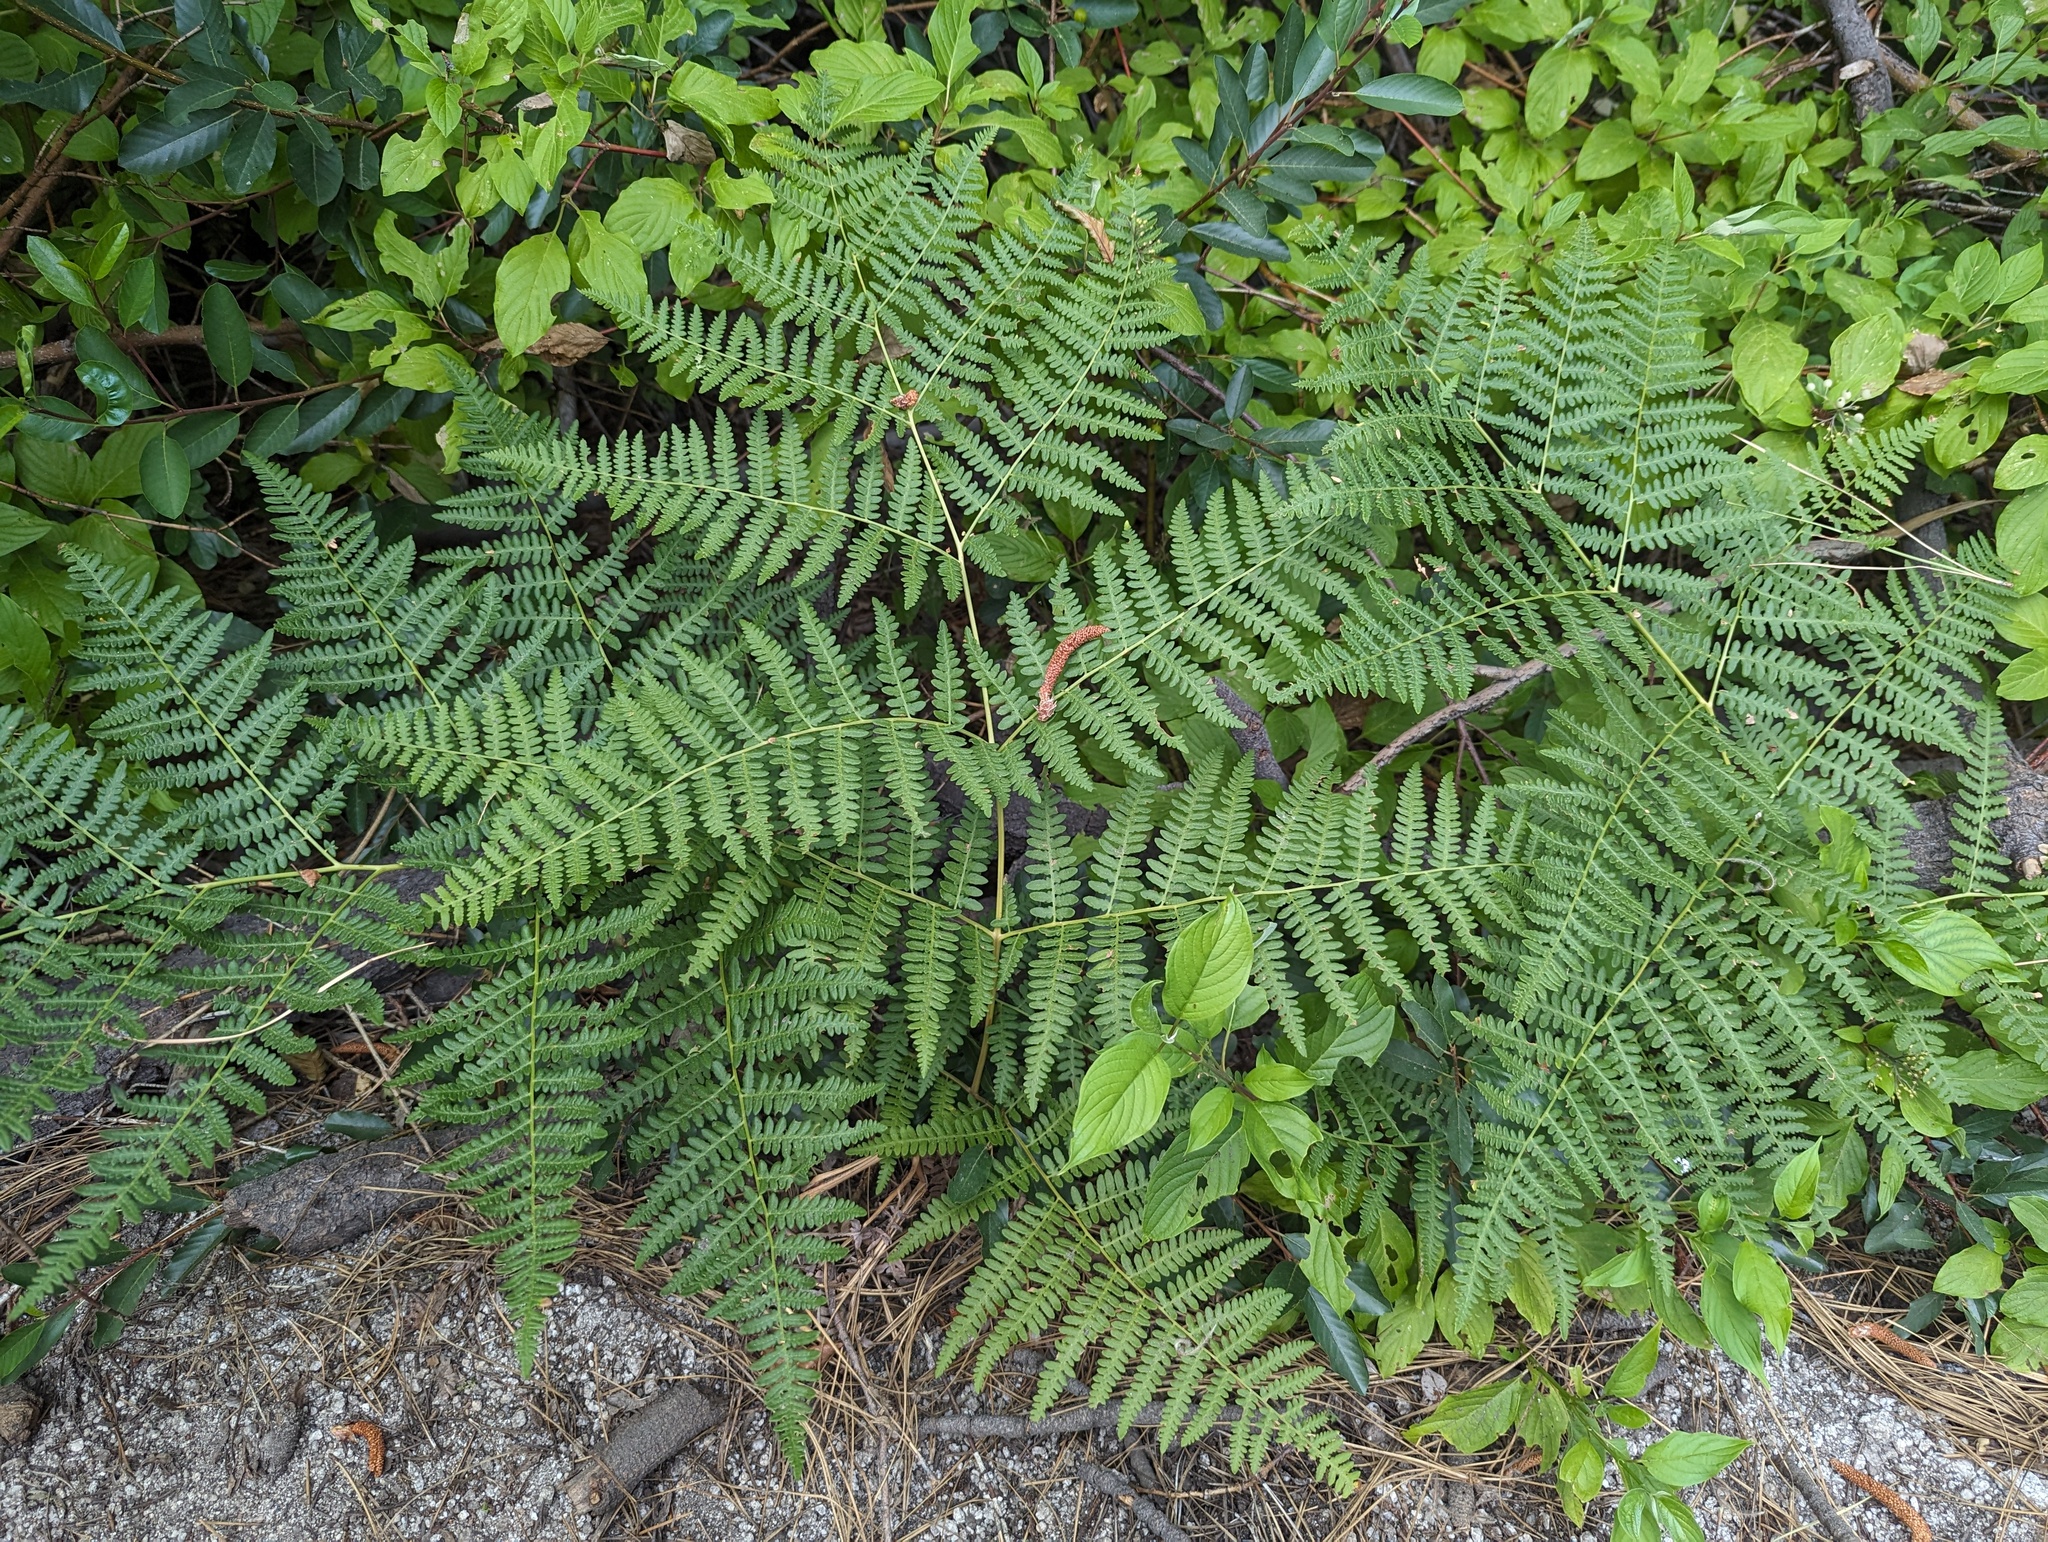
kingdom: Plantae
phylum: Tracheophyta
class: Polypodiopsida
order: Polypodiales
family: Dennstaedtiaceae
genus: Pteridium
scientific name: Pteridium aquilinum
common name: Bracken
